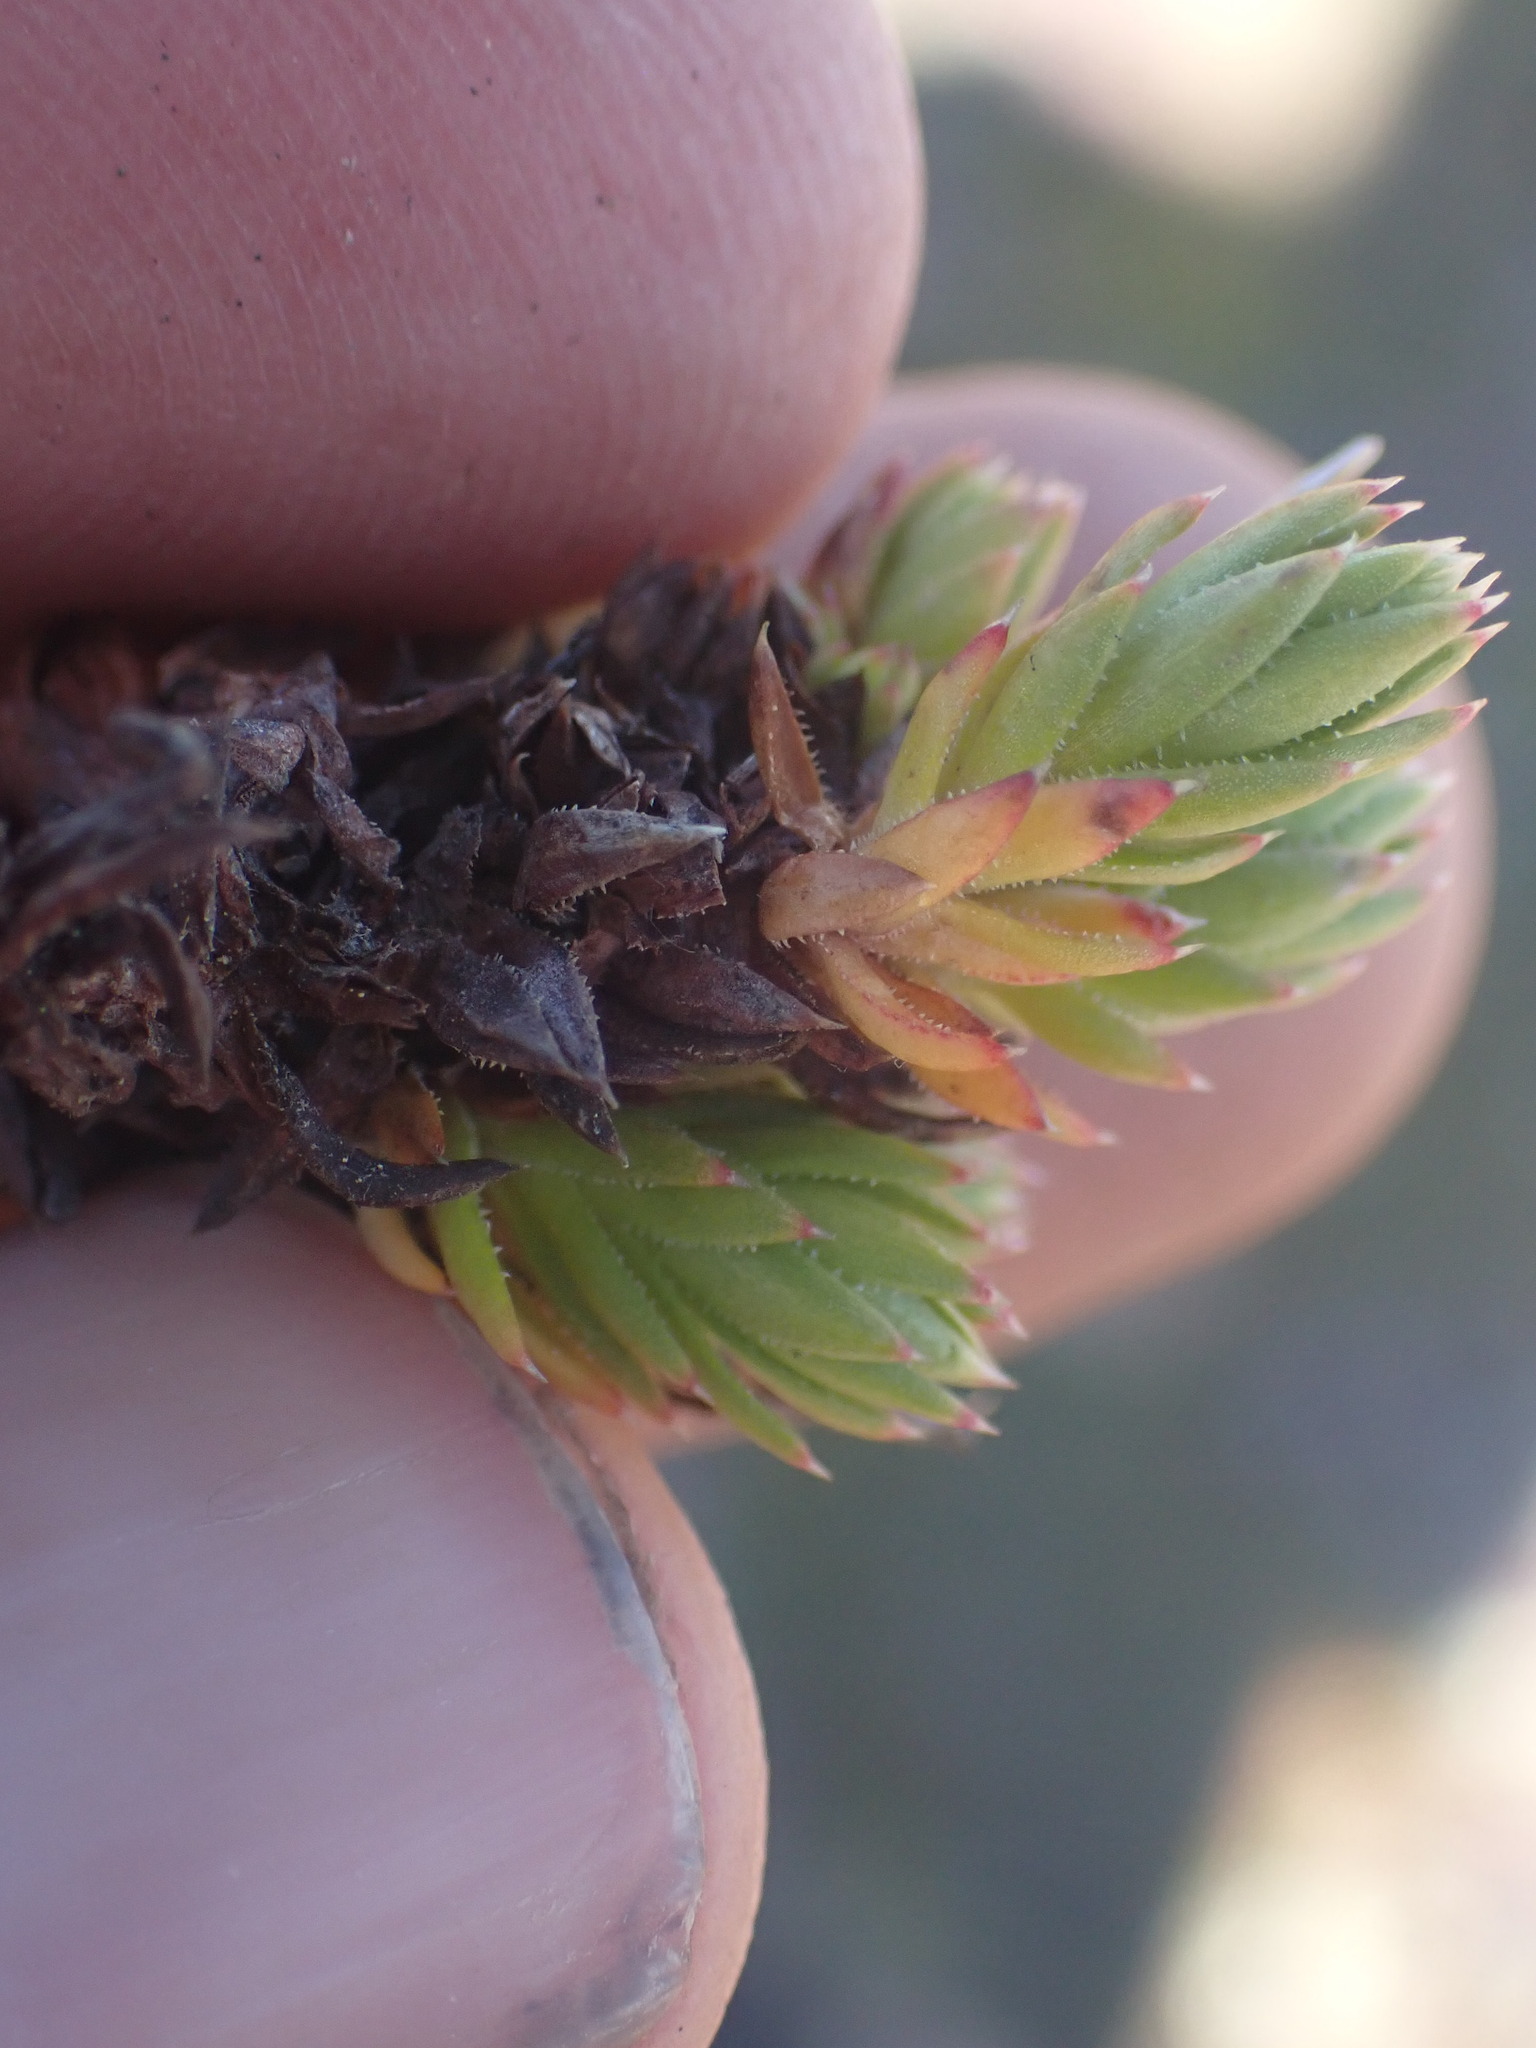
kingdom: Plantae
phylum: Tracheophyta
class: Magnoliopsida
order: Saxifragales
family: Saxifragaceae
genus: Saxifraga
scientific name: Saxifraga bronchialis
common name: Matted saxifrage
